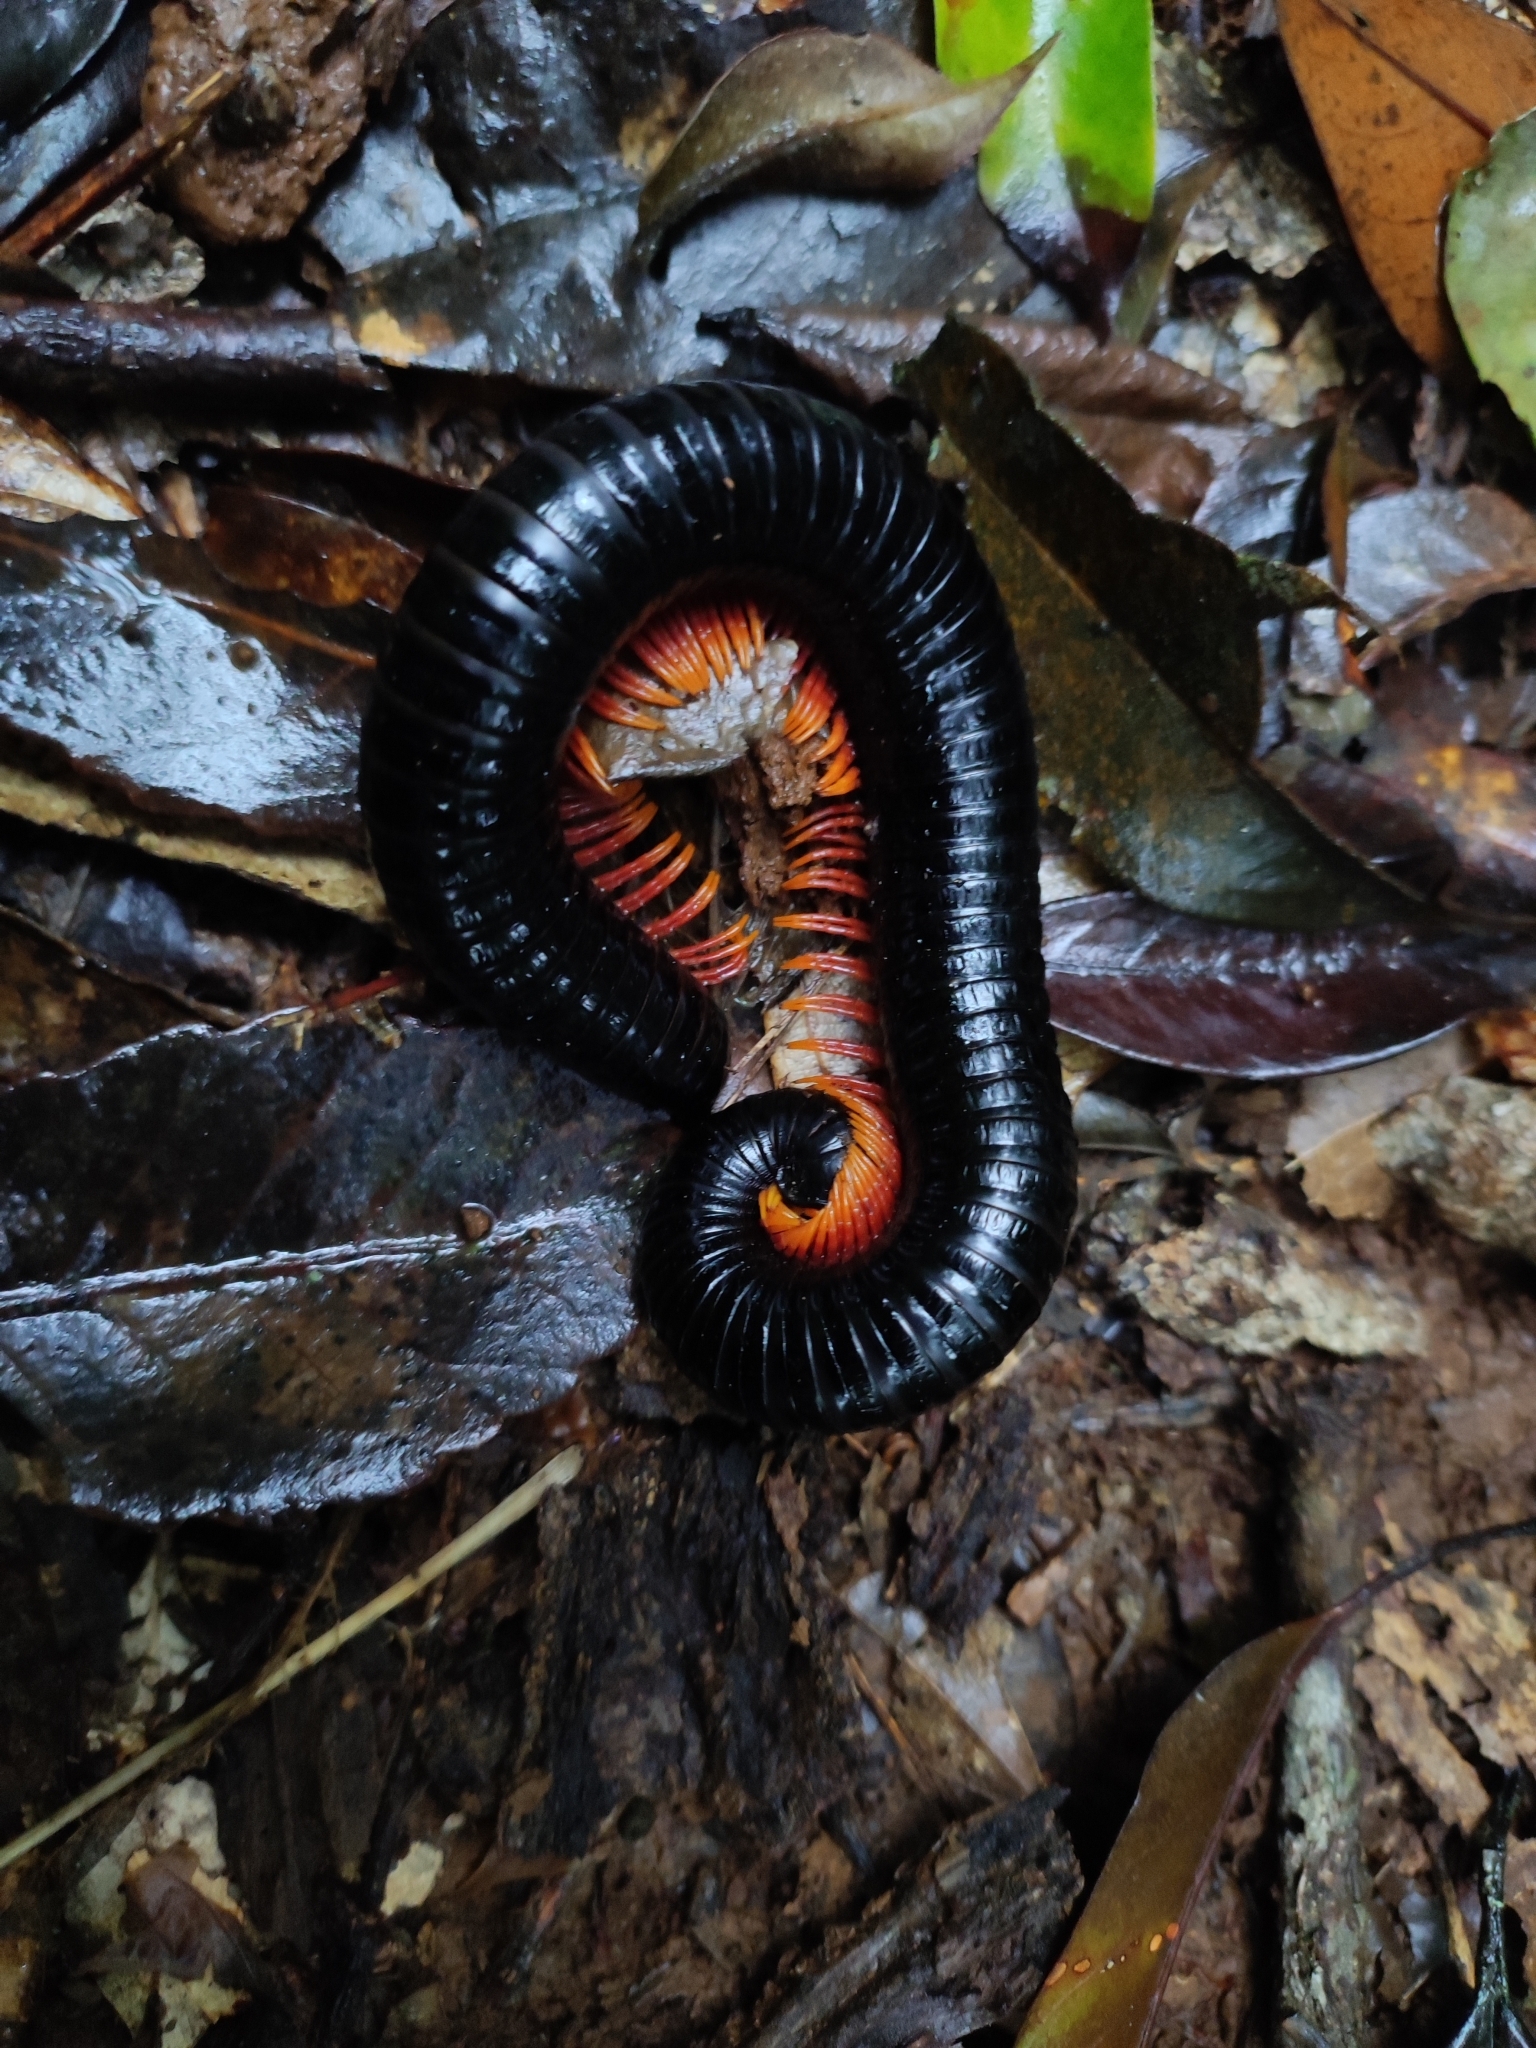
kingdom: Animalia
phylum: Arthropoda
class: Diplopoda
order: Spirostreptida
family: Harpagophoridae
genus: Alienostreptus
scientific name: Alienostreptus bicoloripes
